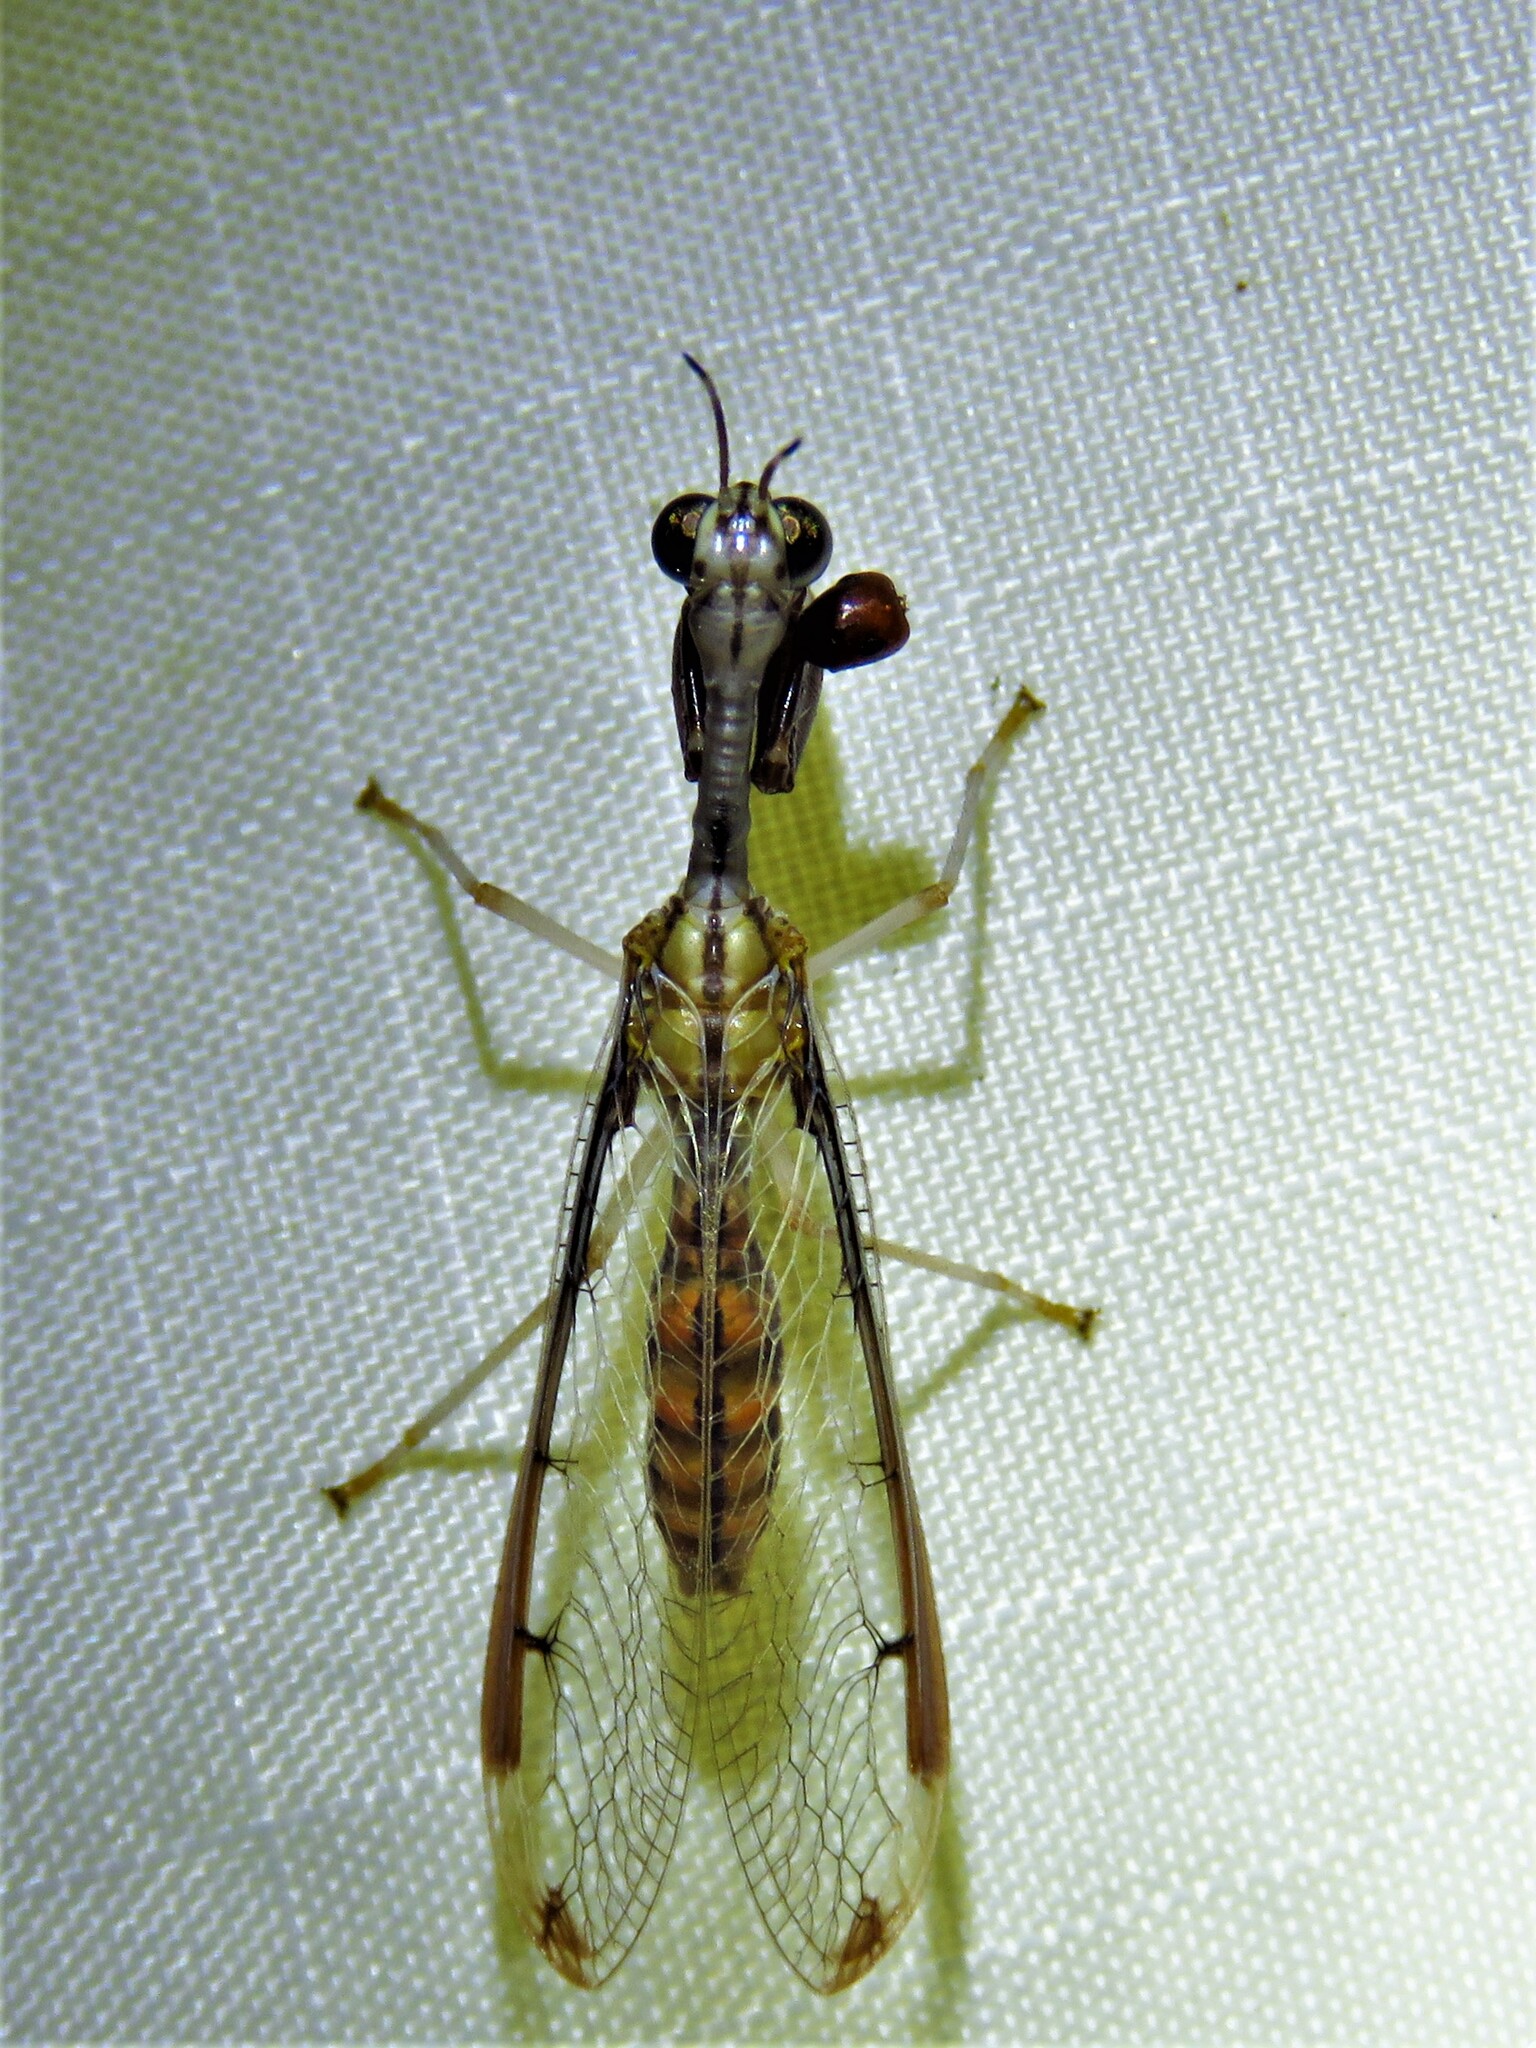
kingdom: Animalia
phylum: Arthropoda
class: Insecta
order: Neuroptera
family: Mantispidae
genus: Dicromantispa
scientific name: Dicromantispa interrupta
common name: Four-spotted mantidfly
